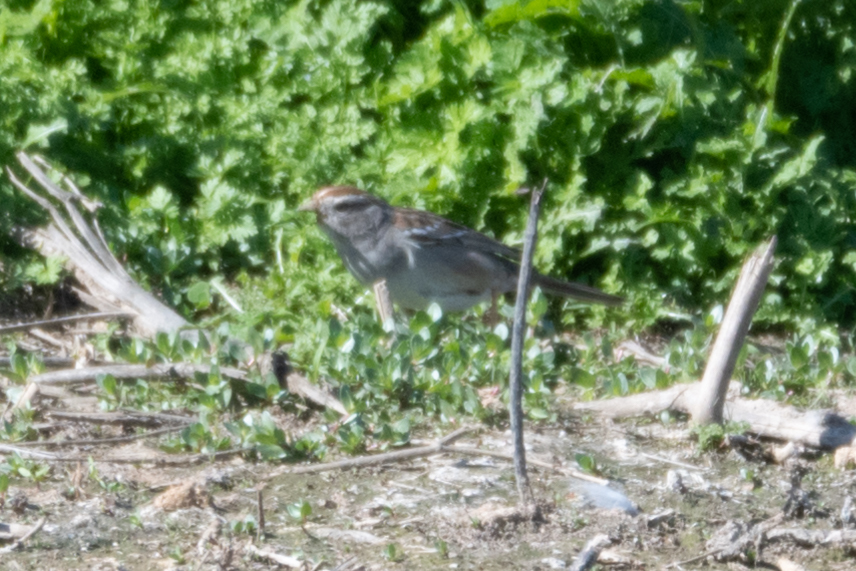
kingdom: Animalia
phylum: Chordata
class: Aves
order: Passeriformes
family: Passerellidae
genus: Zonotrichia
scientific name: Zonotrichia leucophrys
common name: White-crowned sparrow
